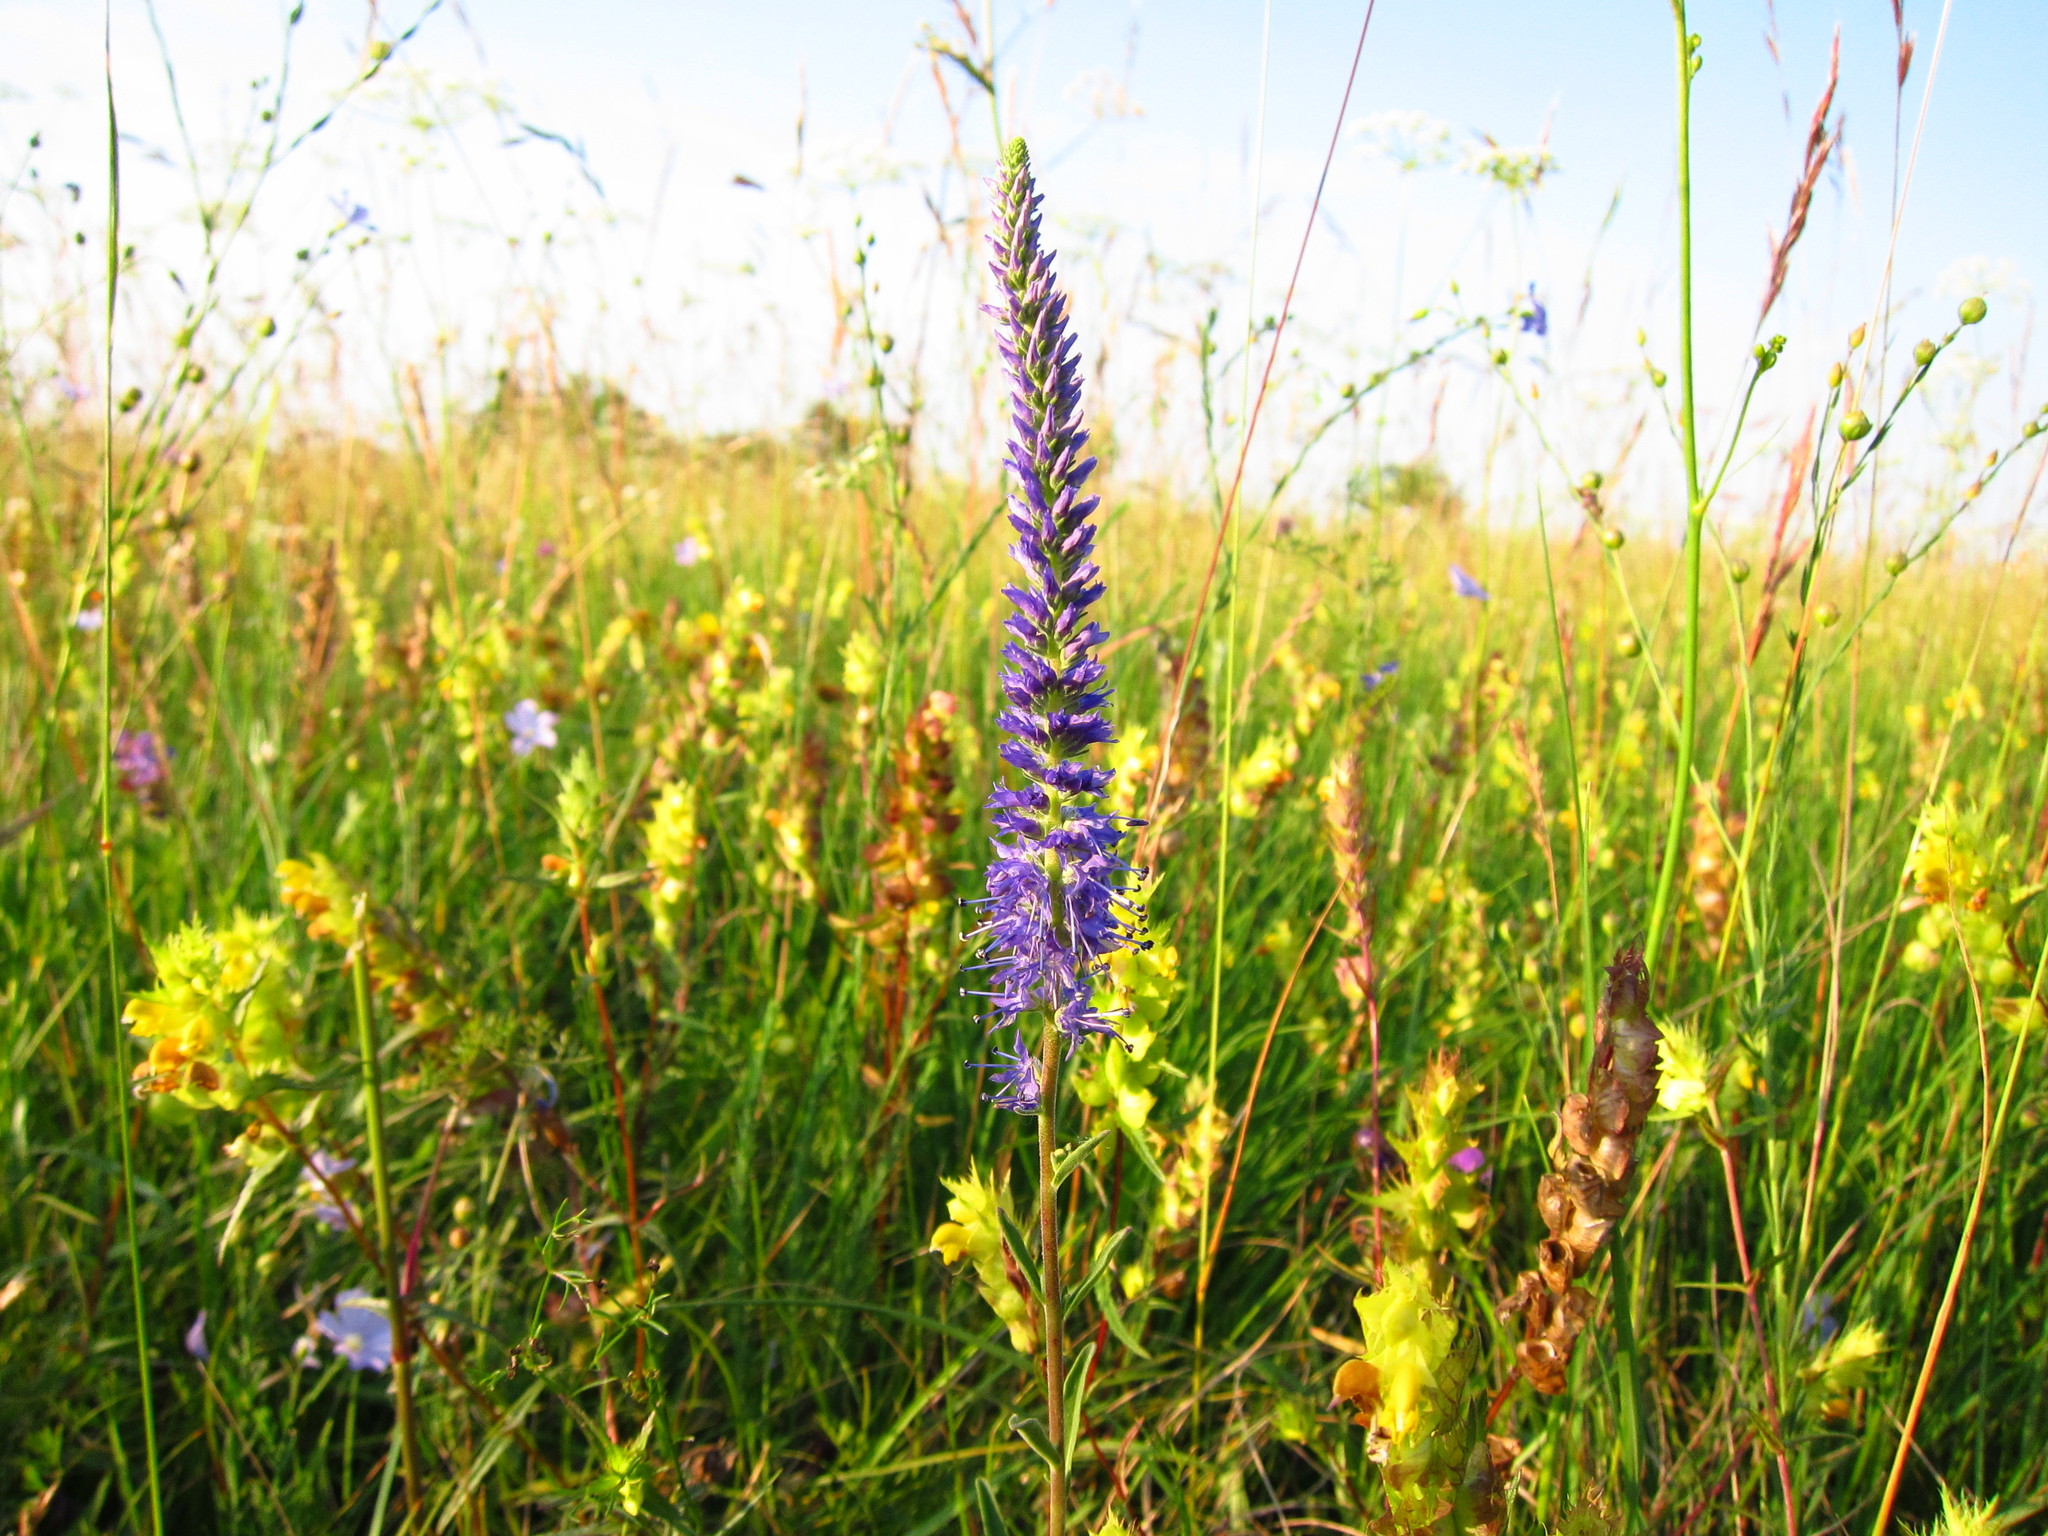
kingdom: Plantae
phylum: Tracheophyta
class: Magnoliopsida
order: Lamiales
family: Plantaginaceae
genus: Veronica
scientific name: Veronica spicata
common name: Spiked speedwell
